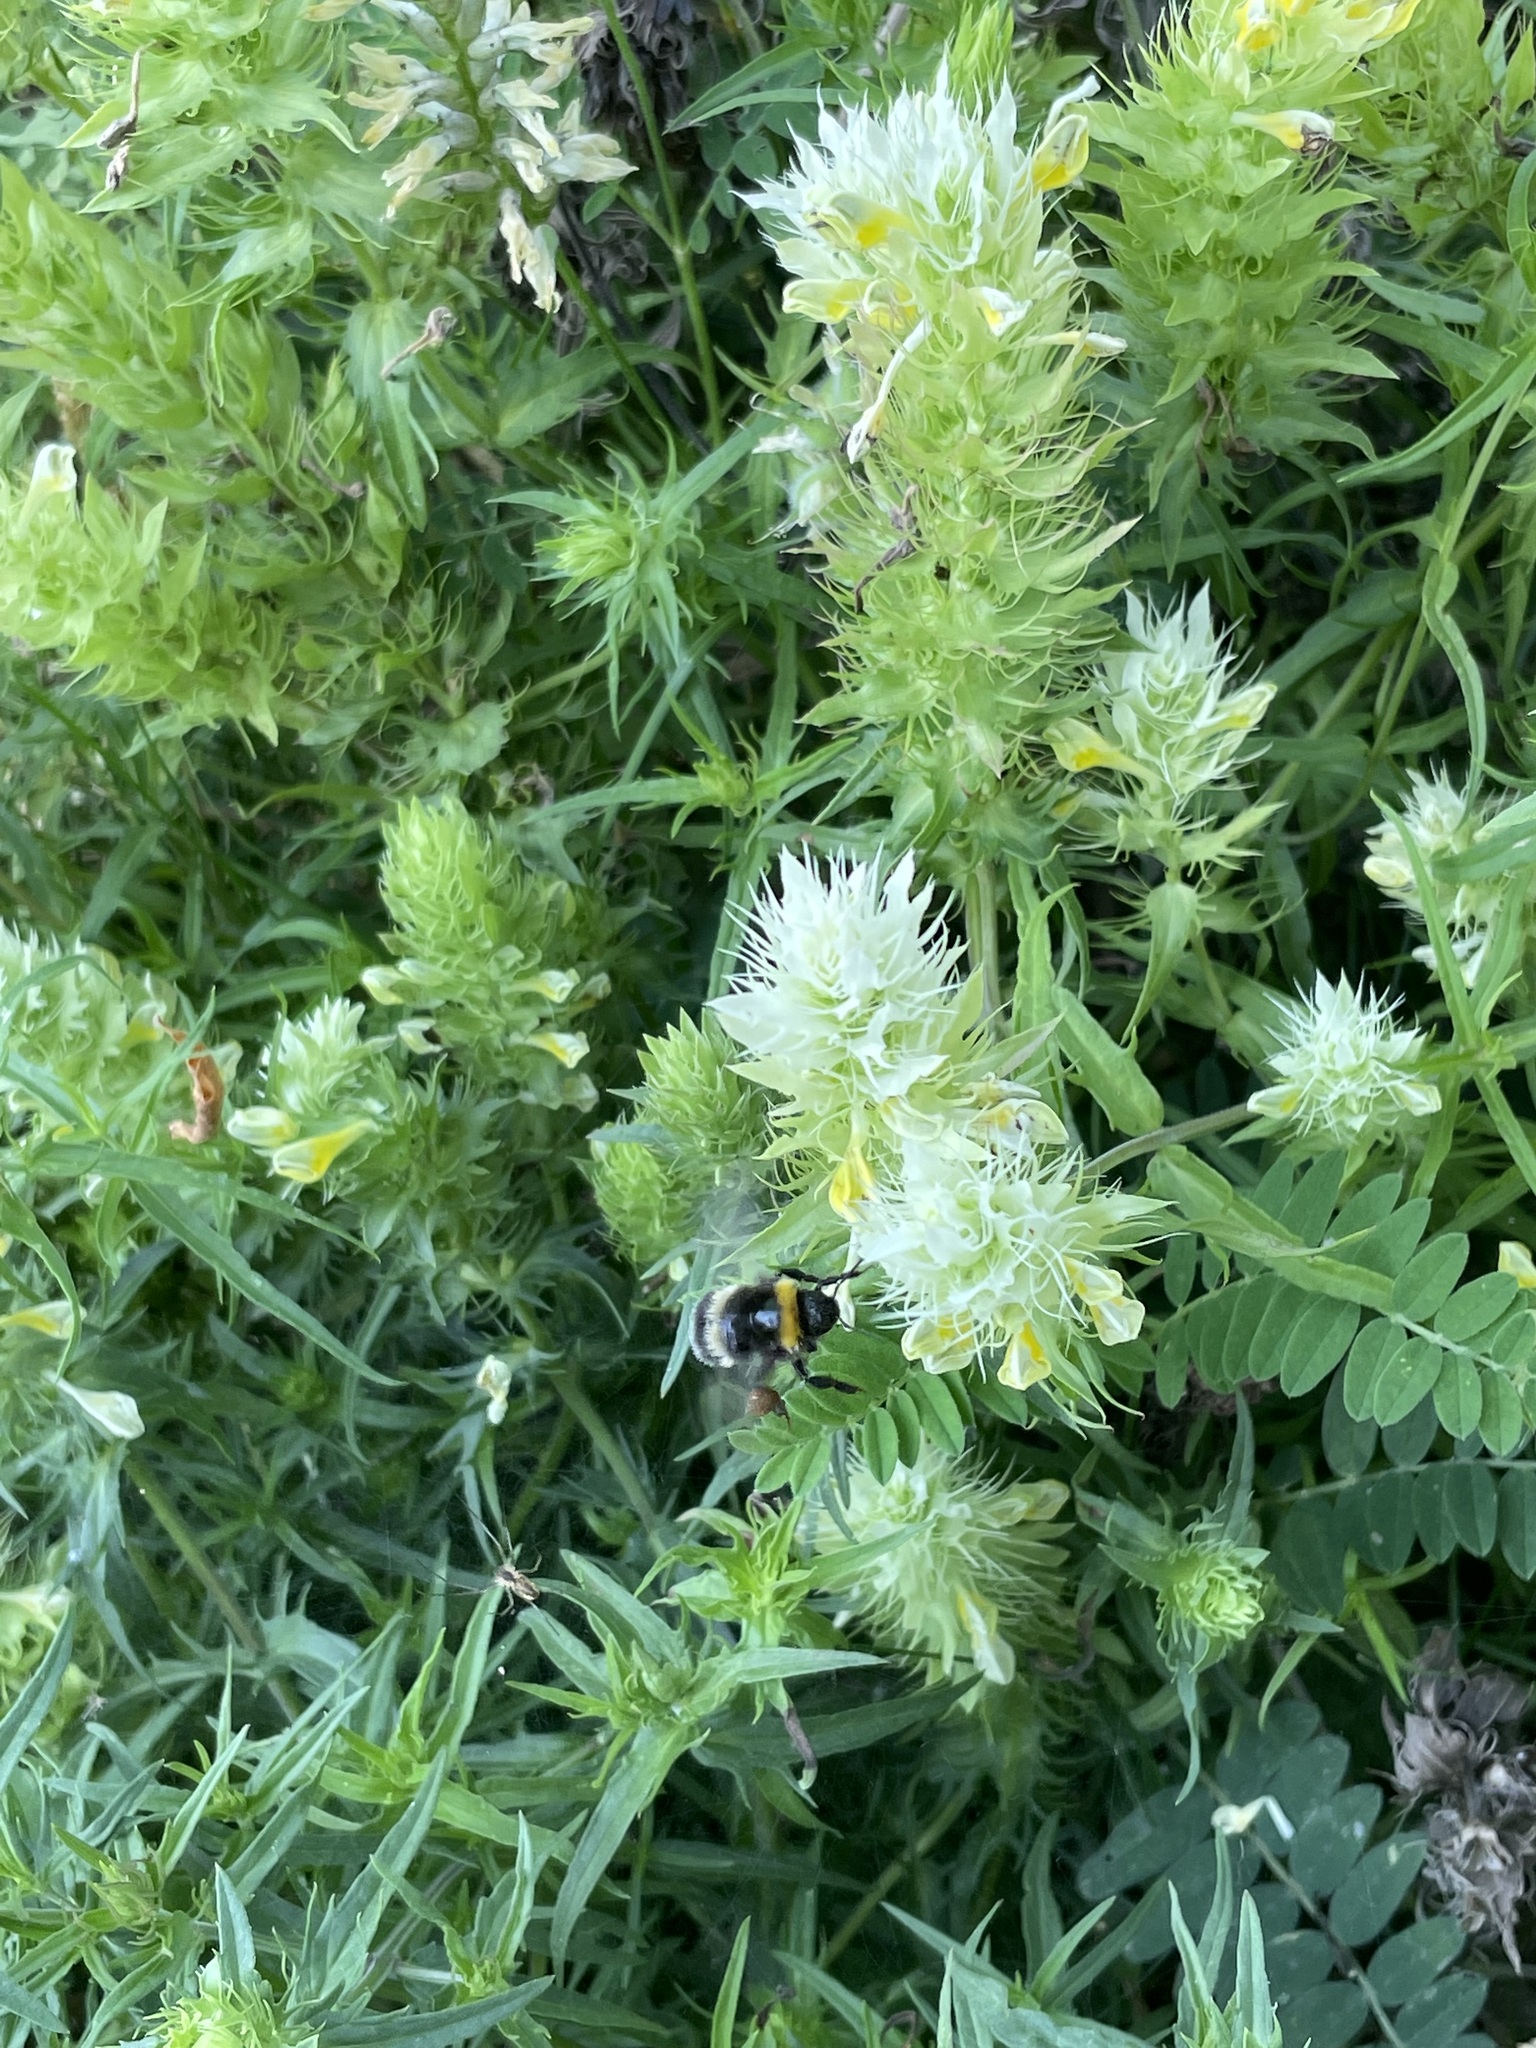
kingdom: Plantae
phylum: Tracheophyta
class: Magnoliopsida
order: Lamiales
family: Orobanchaceae
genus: Melampyrum
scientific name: Melampyrum arvense
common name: Field cow-wheat
